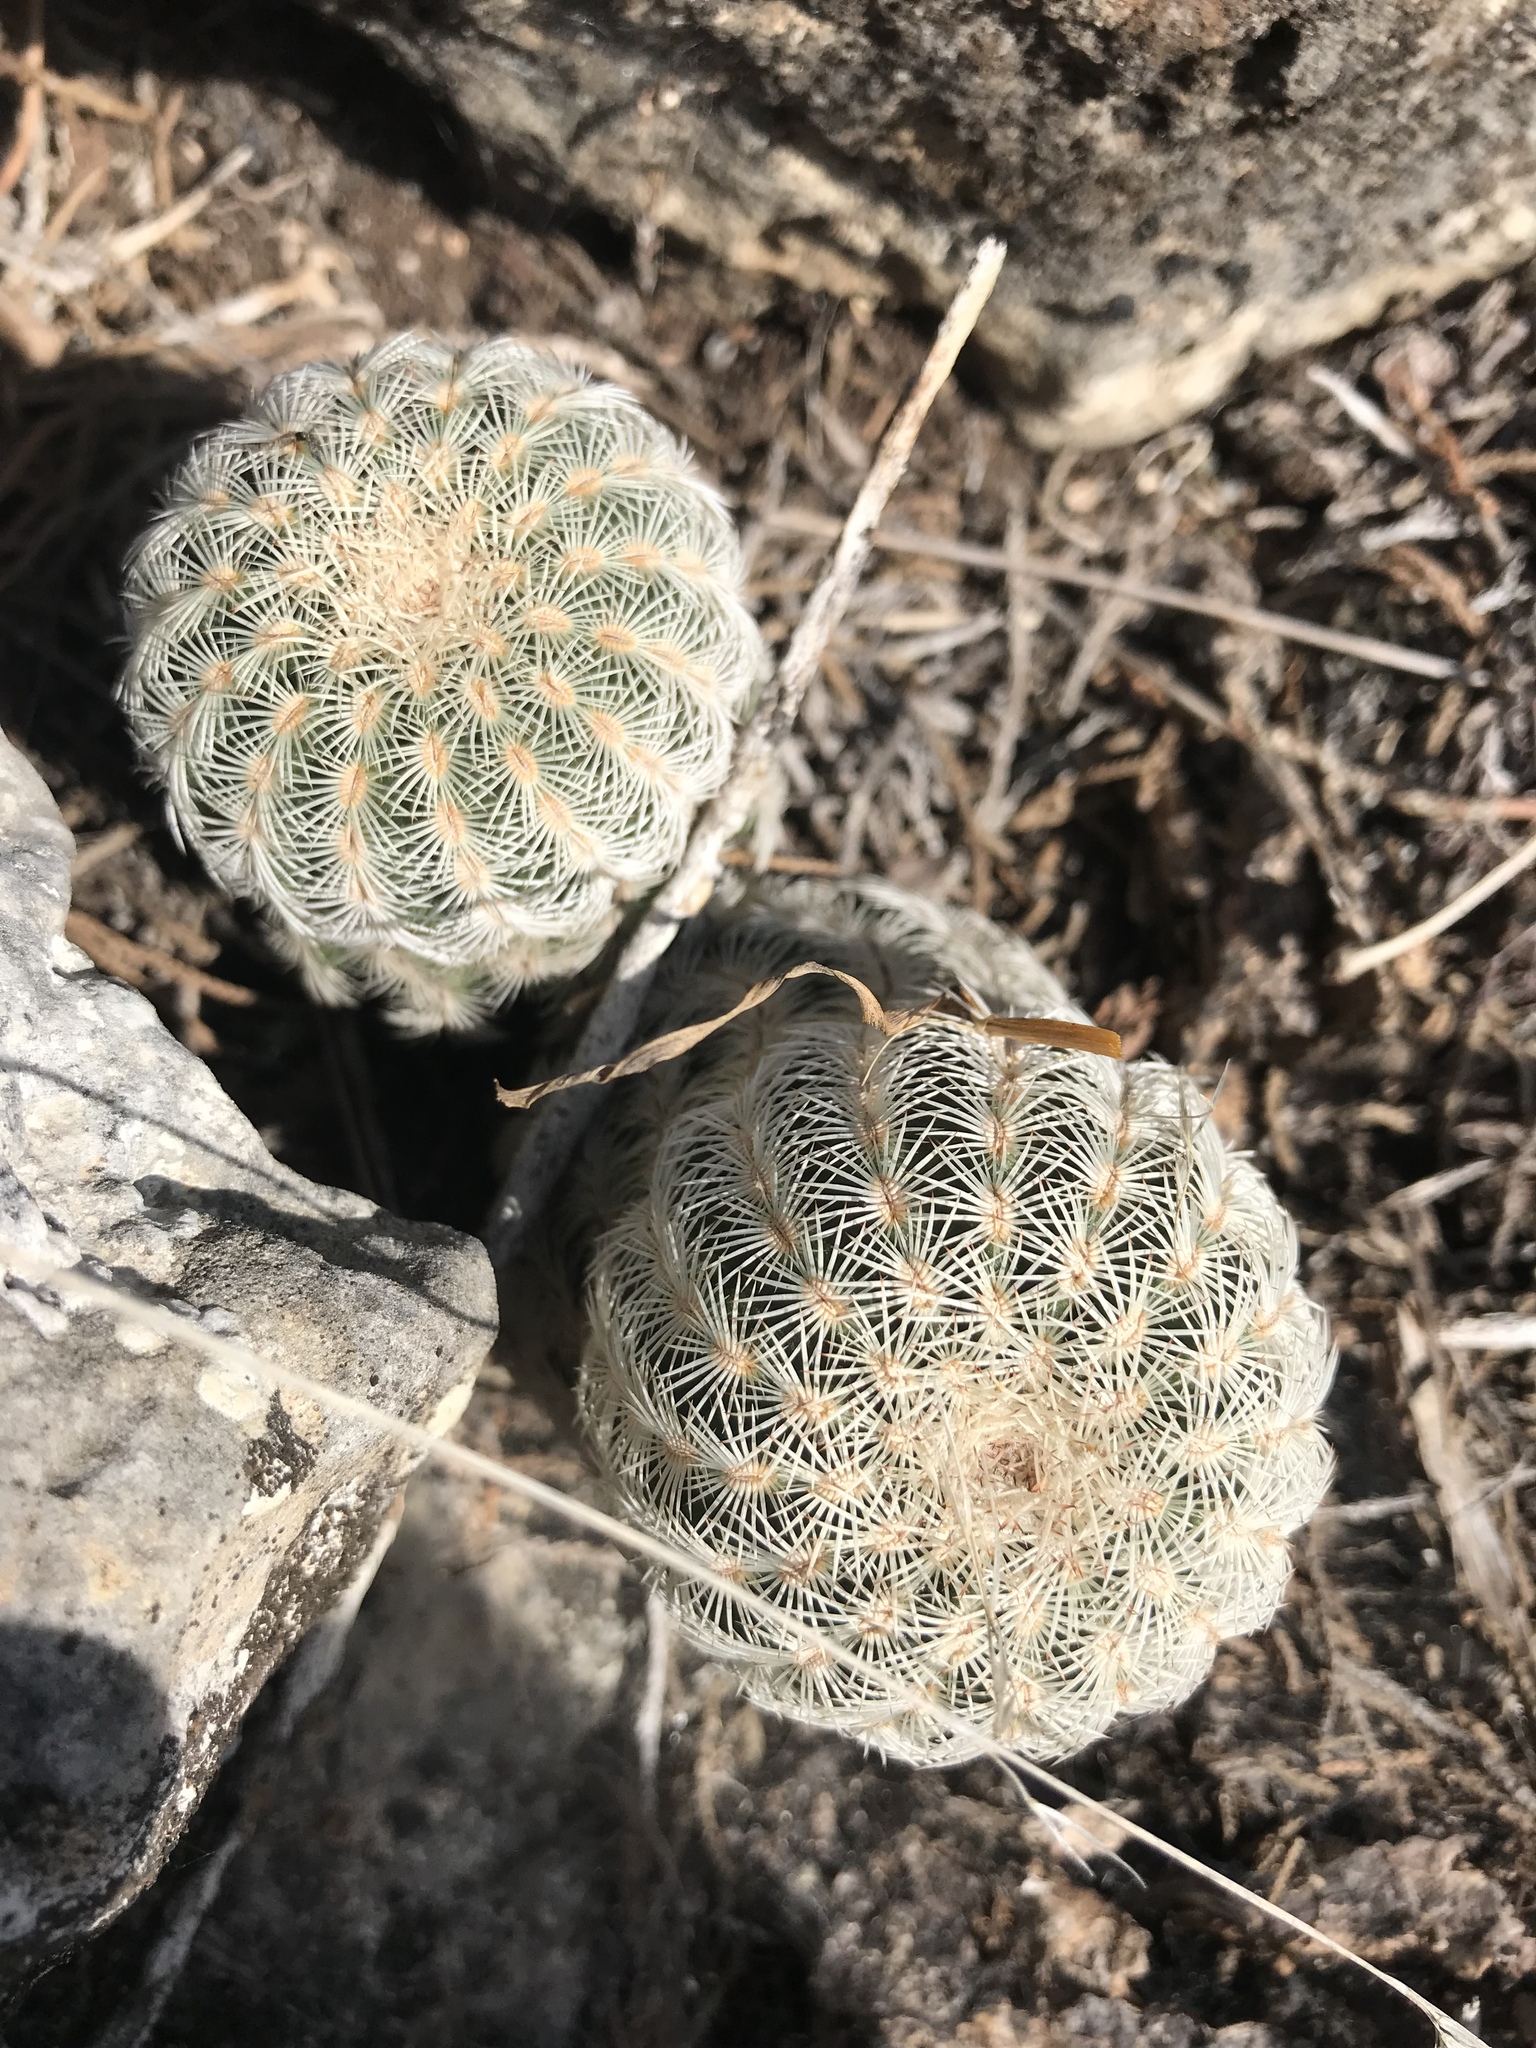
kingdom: Plantae
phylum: Tracheophyta
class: Magnoliopsida
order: Caryophyllales
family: Cactaceae
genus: Echinocereus
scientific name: Echinocereus reichenbachii
